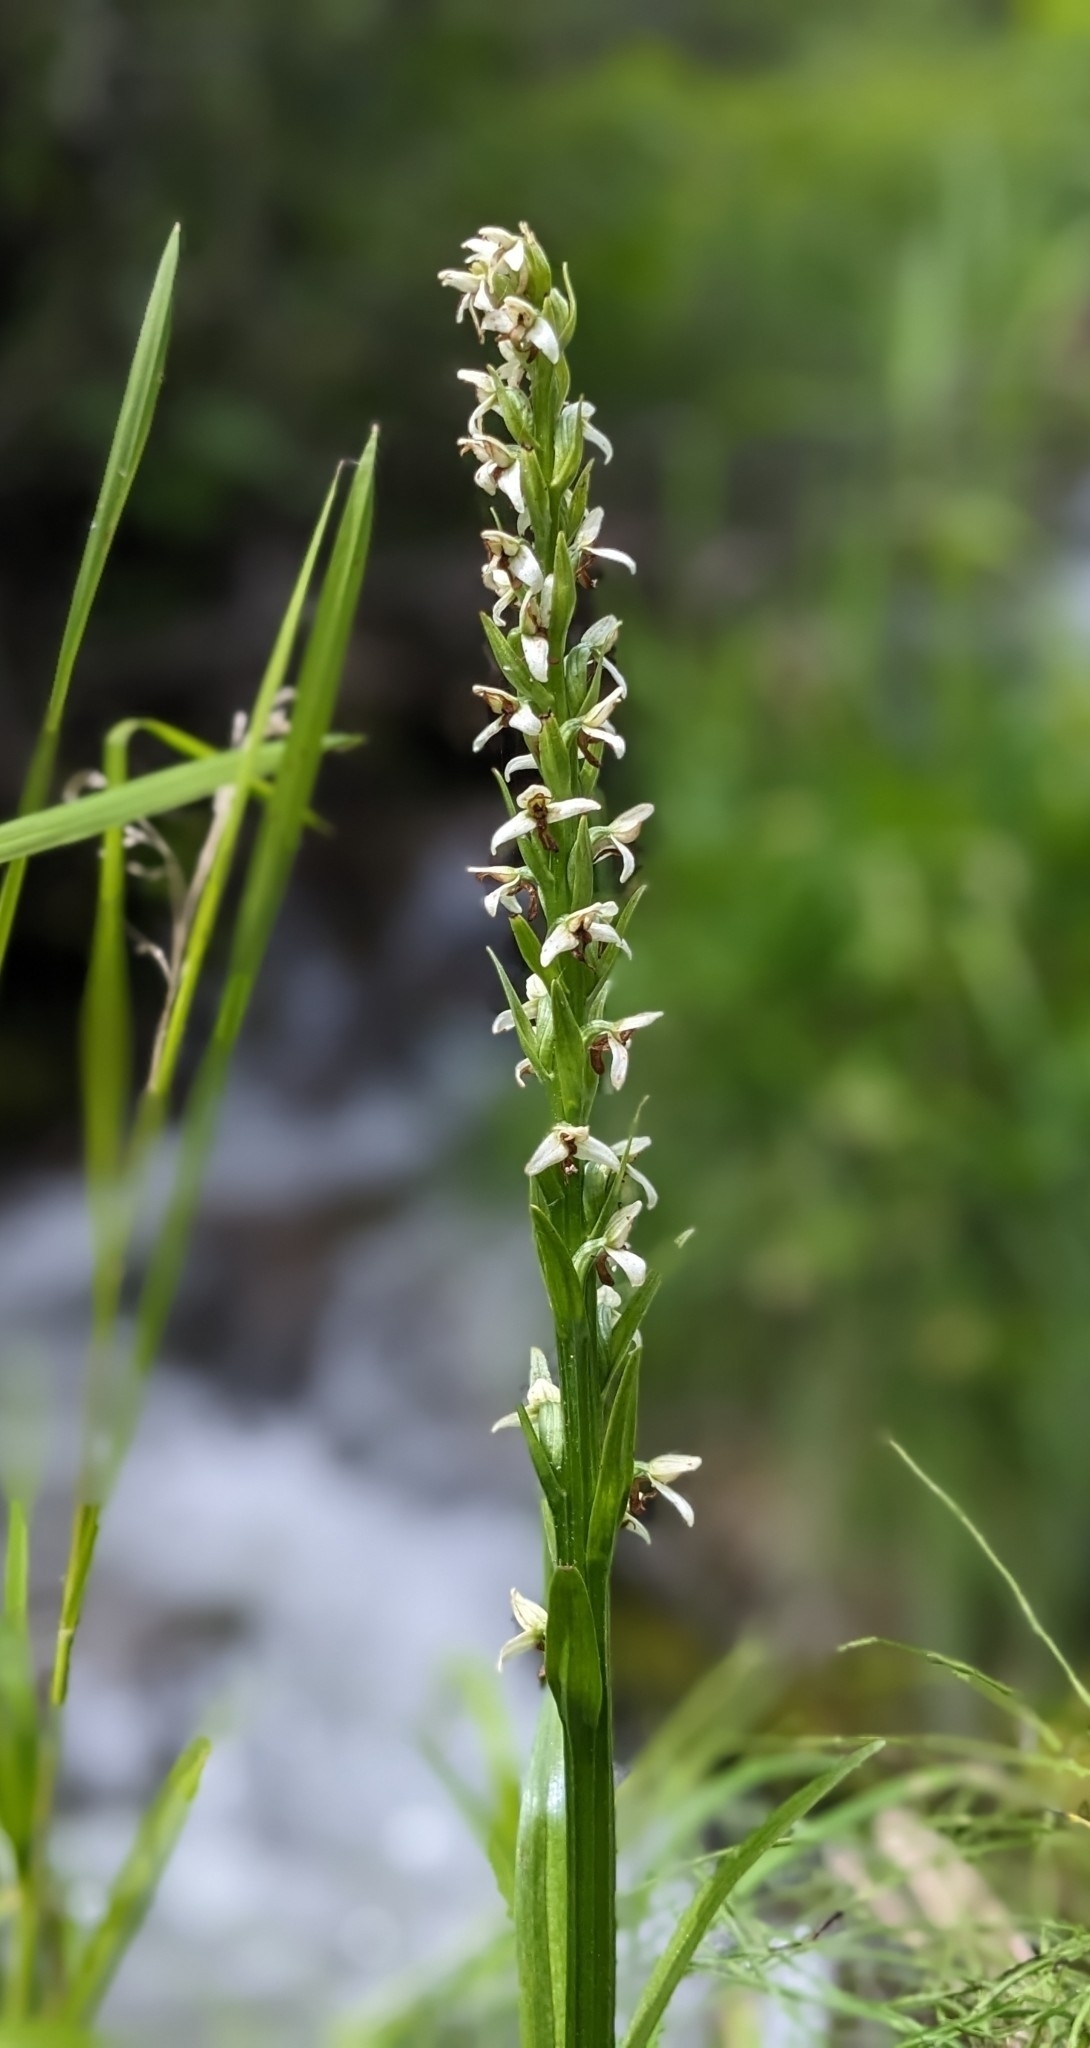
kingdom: Plantae
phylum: Tracheophyta
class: Liliopsida
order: Asparagales
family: Orchidaceae
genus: Platanthera
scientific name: Platanthera dilatata
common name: Bog candles
